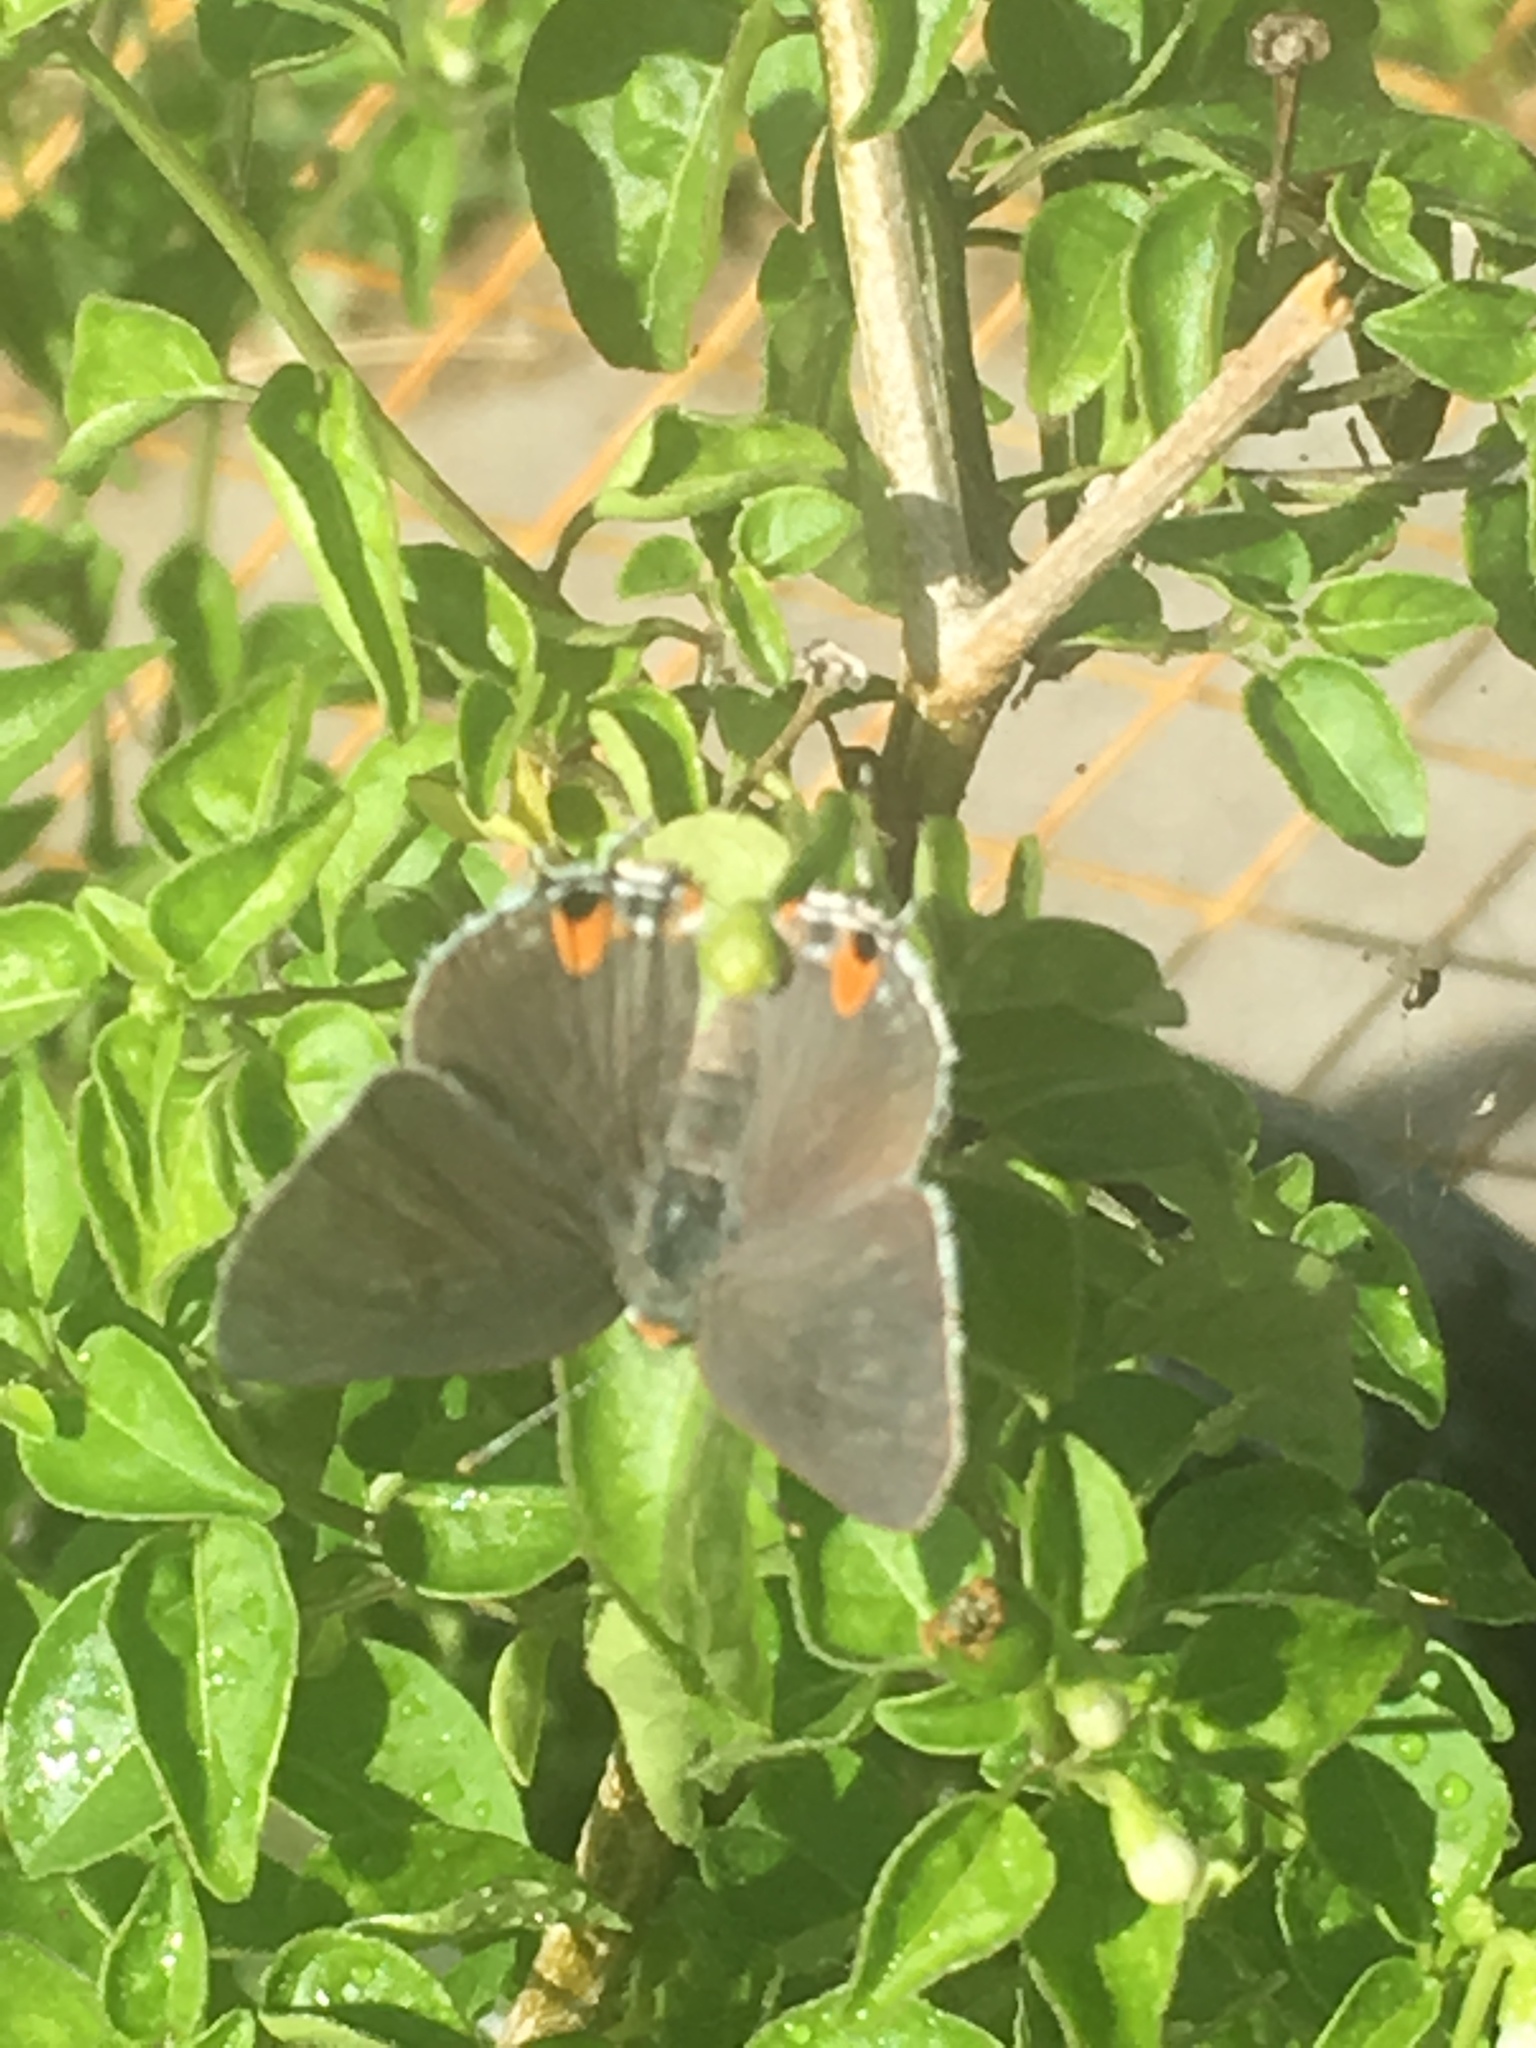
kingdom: Animalia
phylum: Arthropoda
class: Insecta
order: Lepidoptera
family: Lycaenidae
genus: Strymon
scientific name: Strymon melinus
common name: Gray hairstreak
